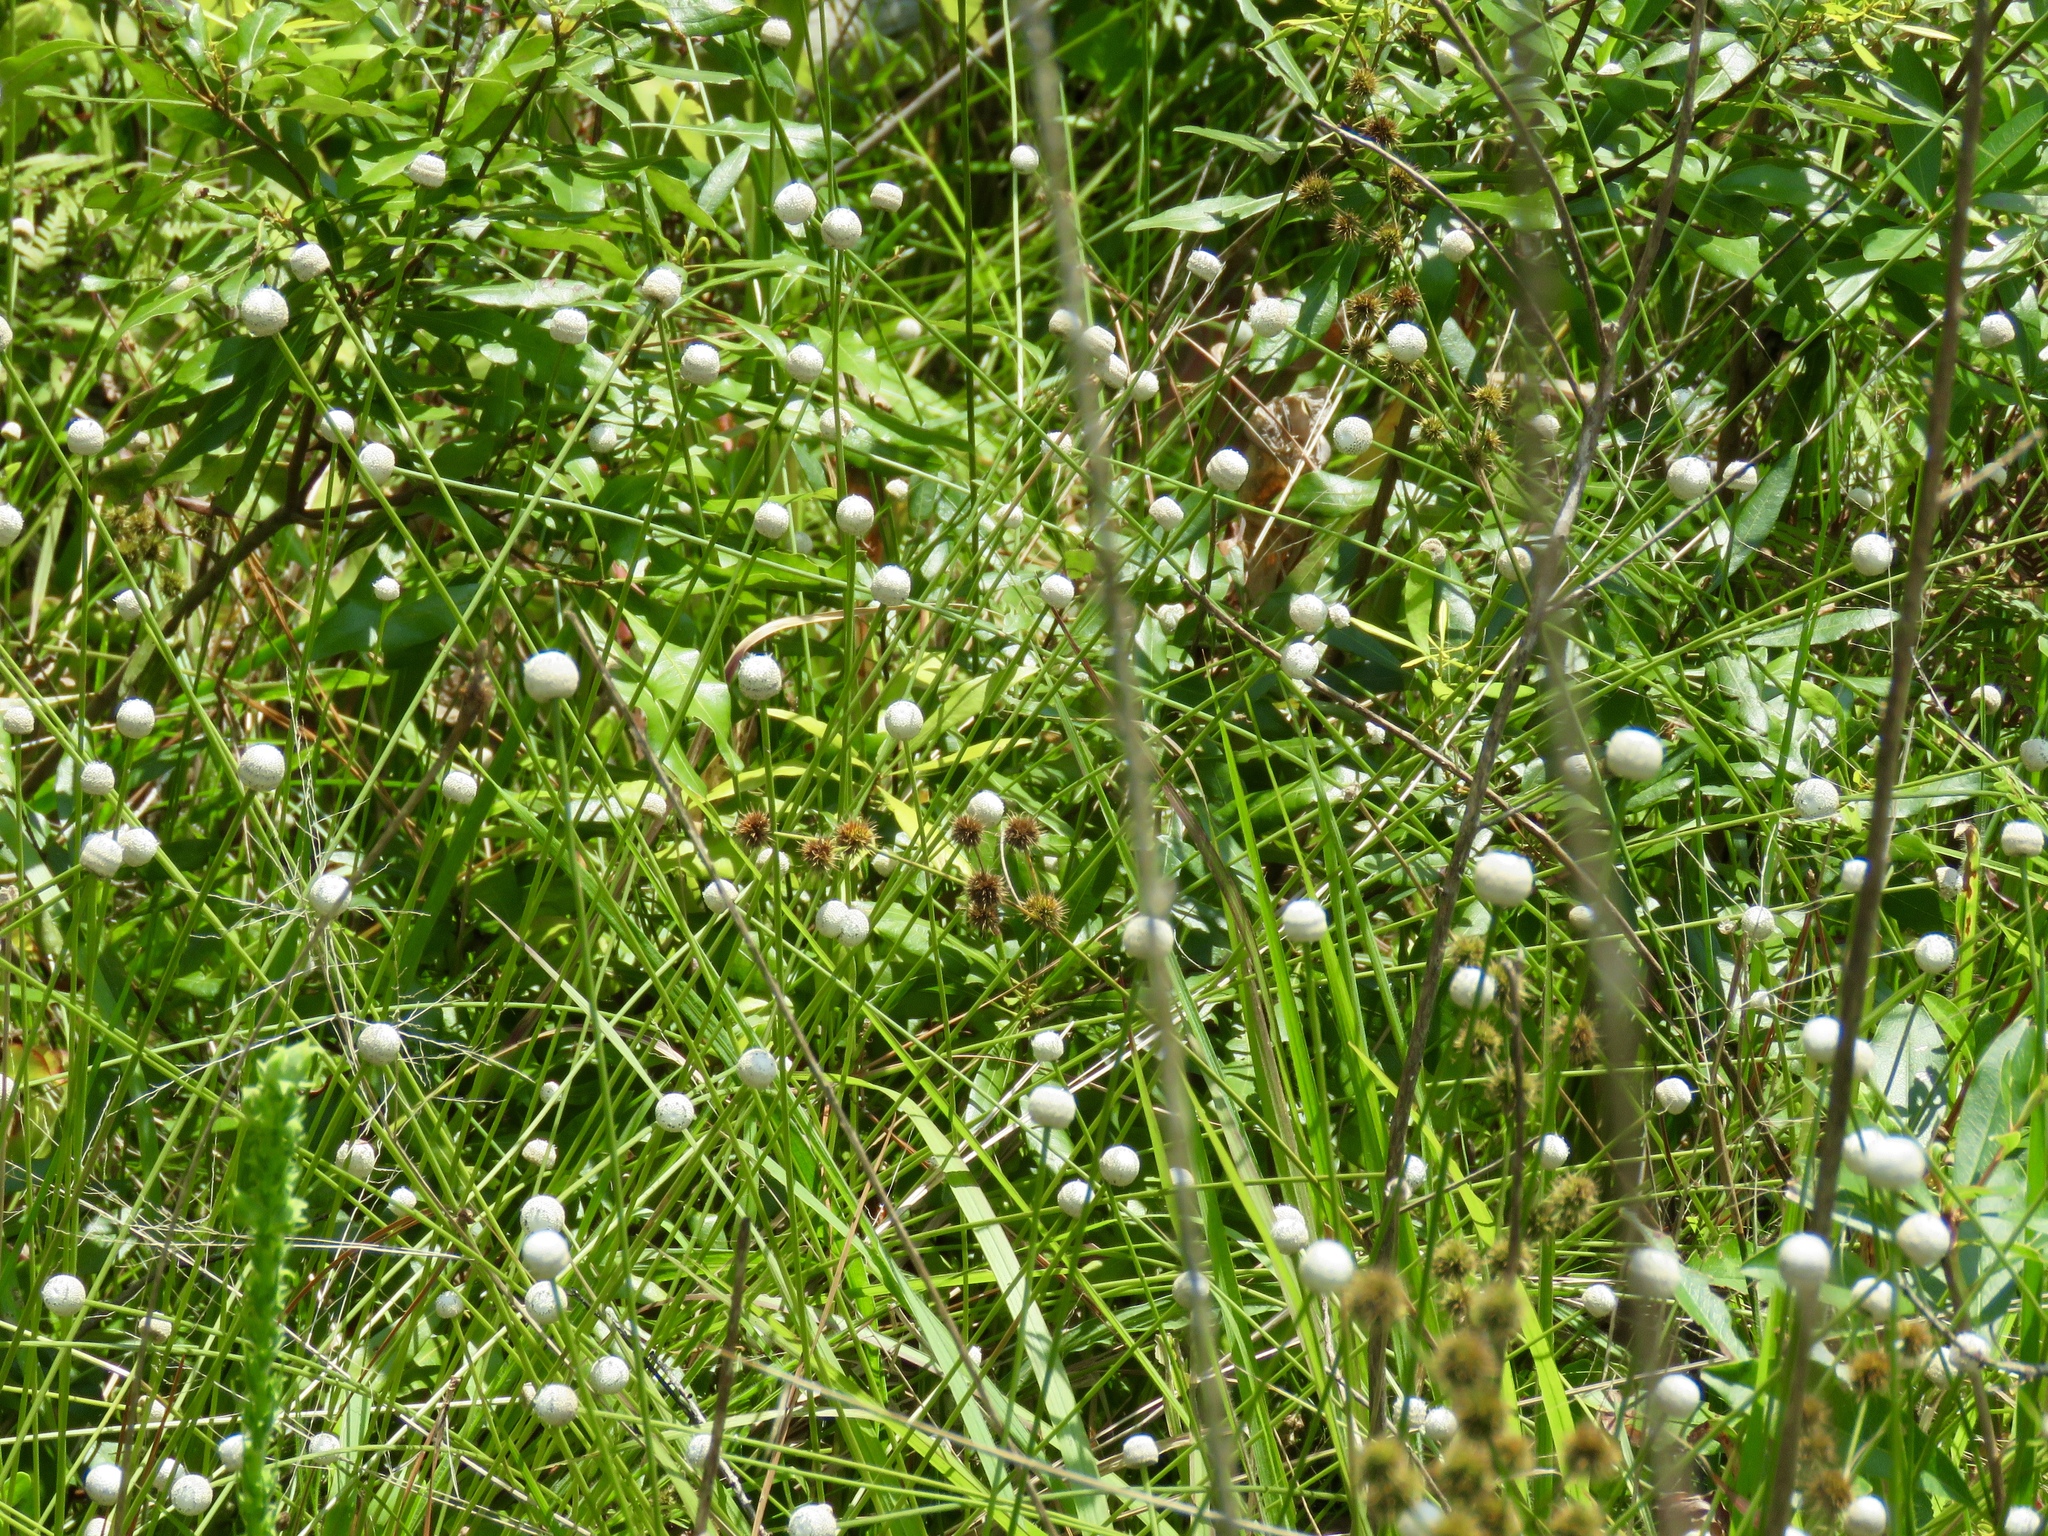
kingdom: Plantae
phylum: Tracheophyta
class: Liliopsida
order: Poales
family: Eriocaulaceae
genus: Eriocaulon
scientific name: Eriocaulon decangulare
